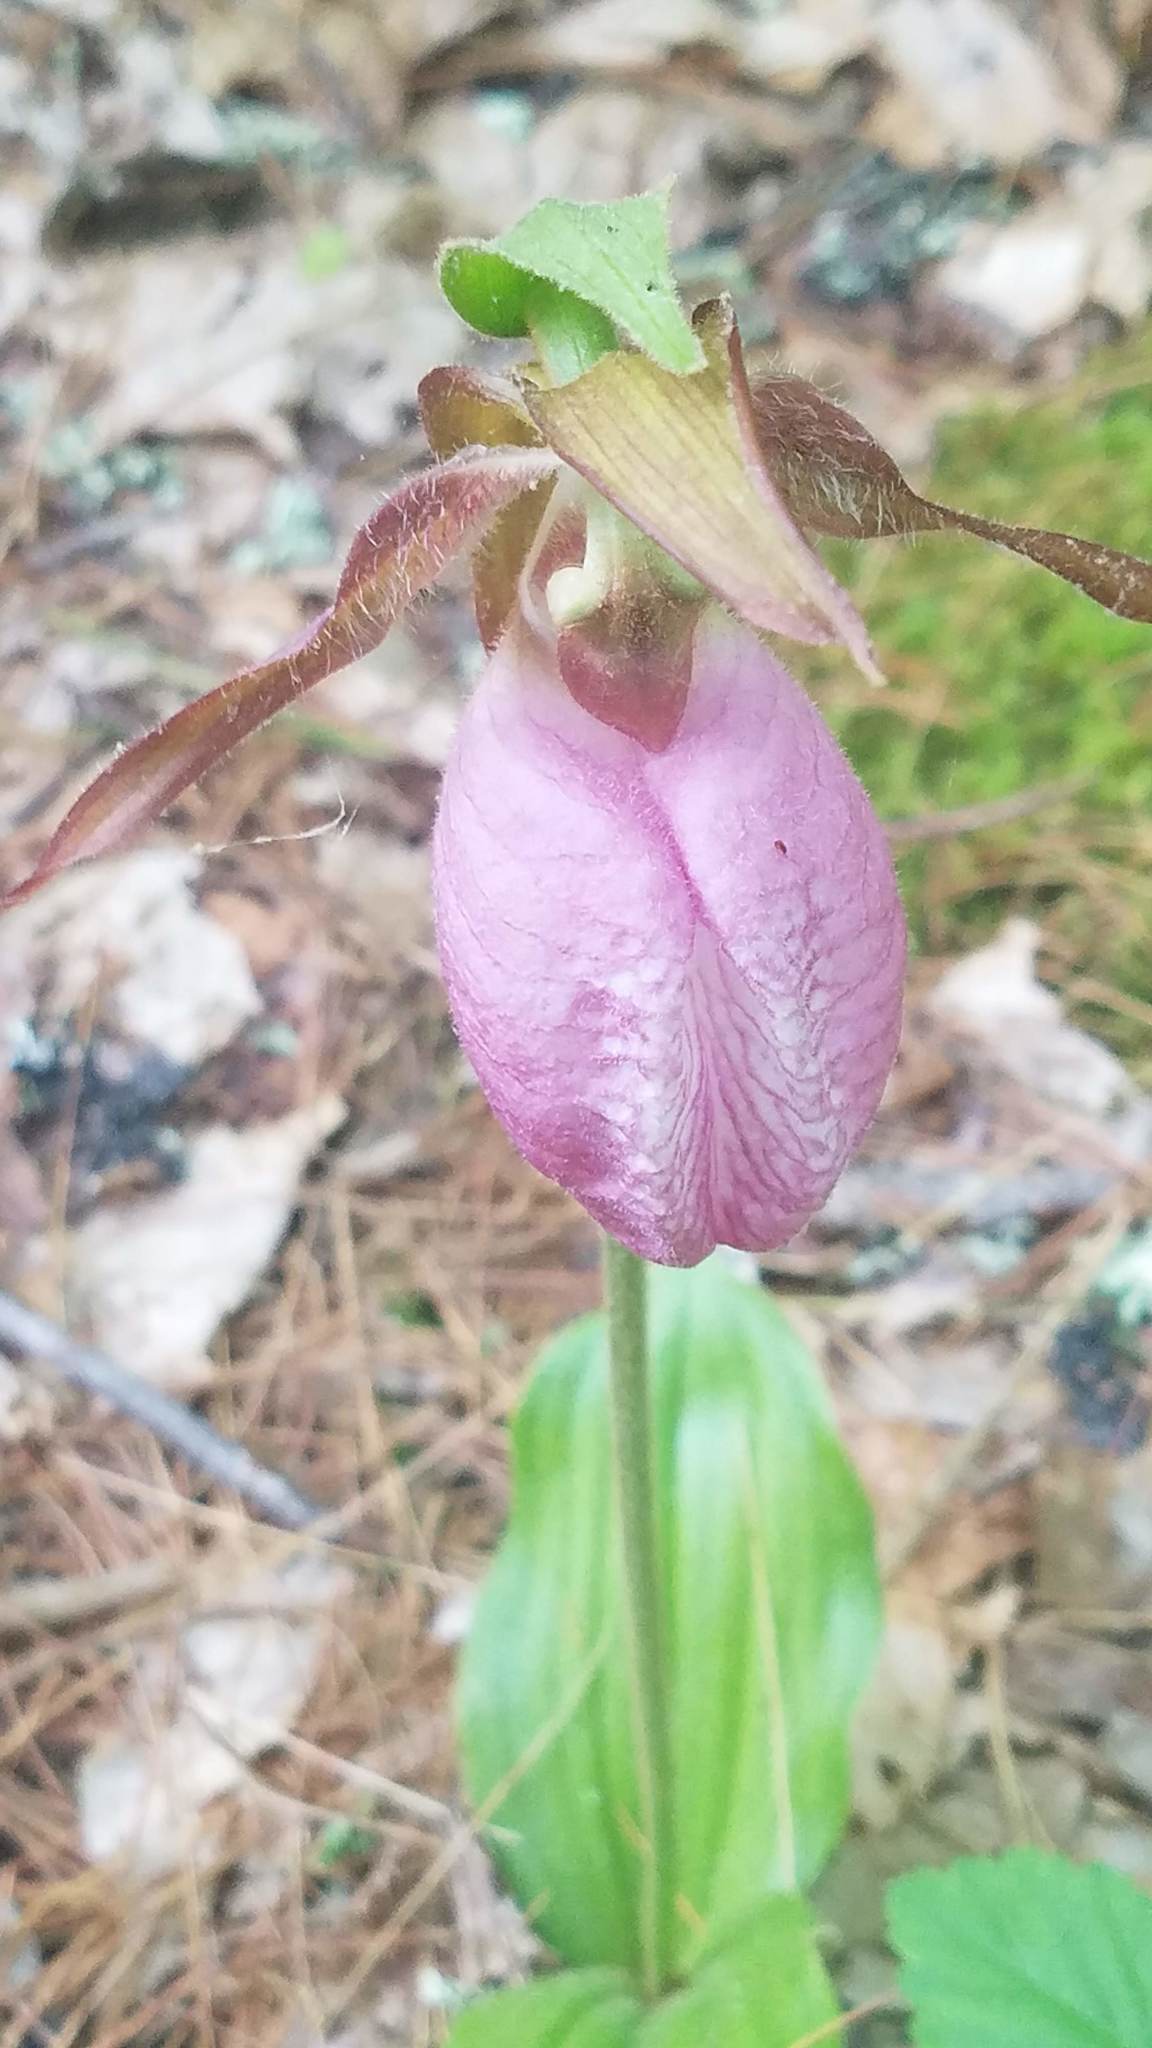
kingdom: Plantae
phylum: Tracheophyta
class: Liliopsida
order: Asparagales
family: Orchidaceae
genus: Cypripedium
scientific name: Cypripedium acaule
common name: Pink lady's-slipper
